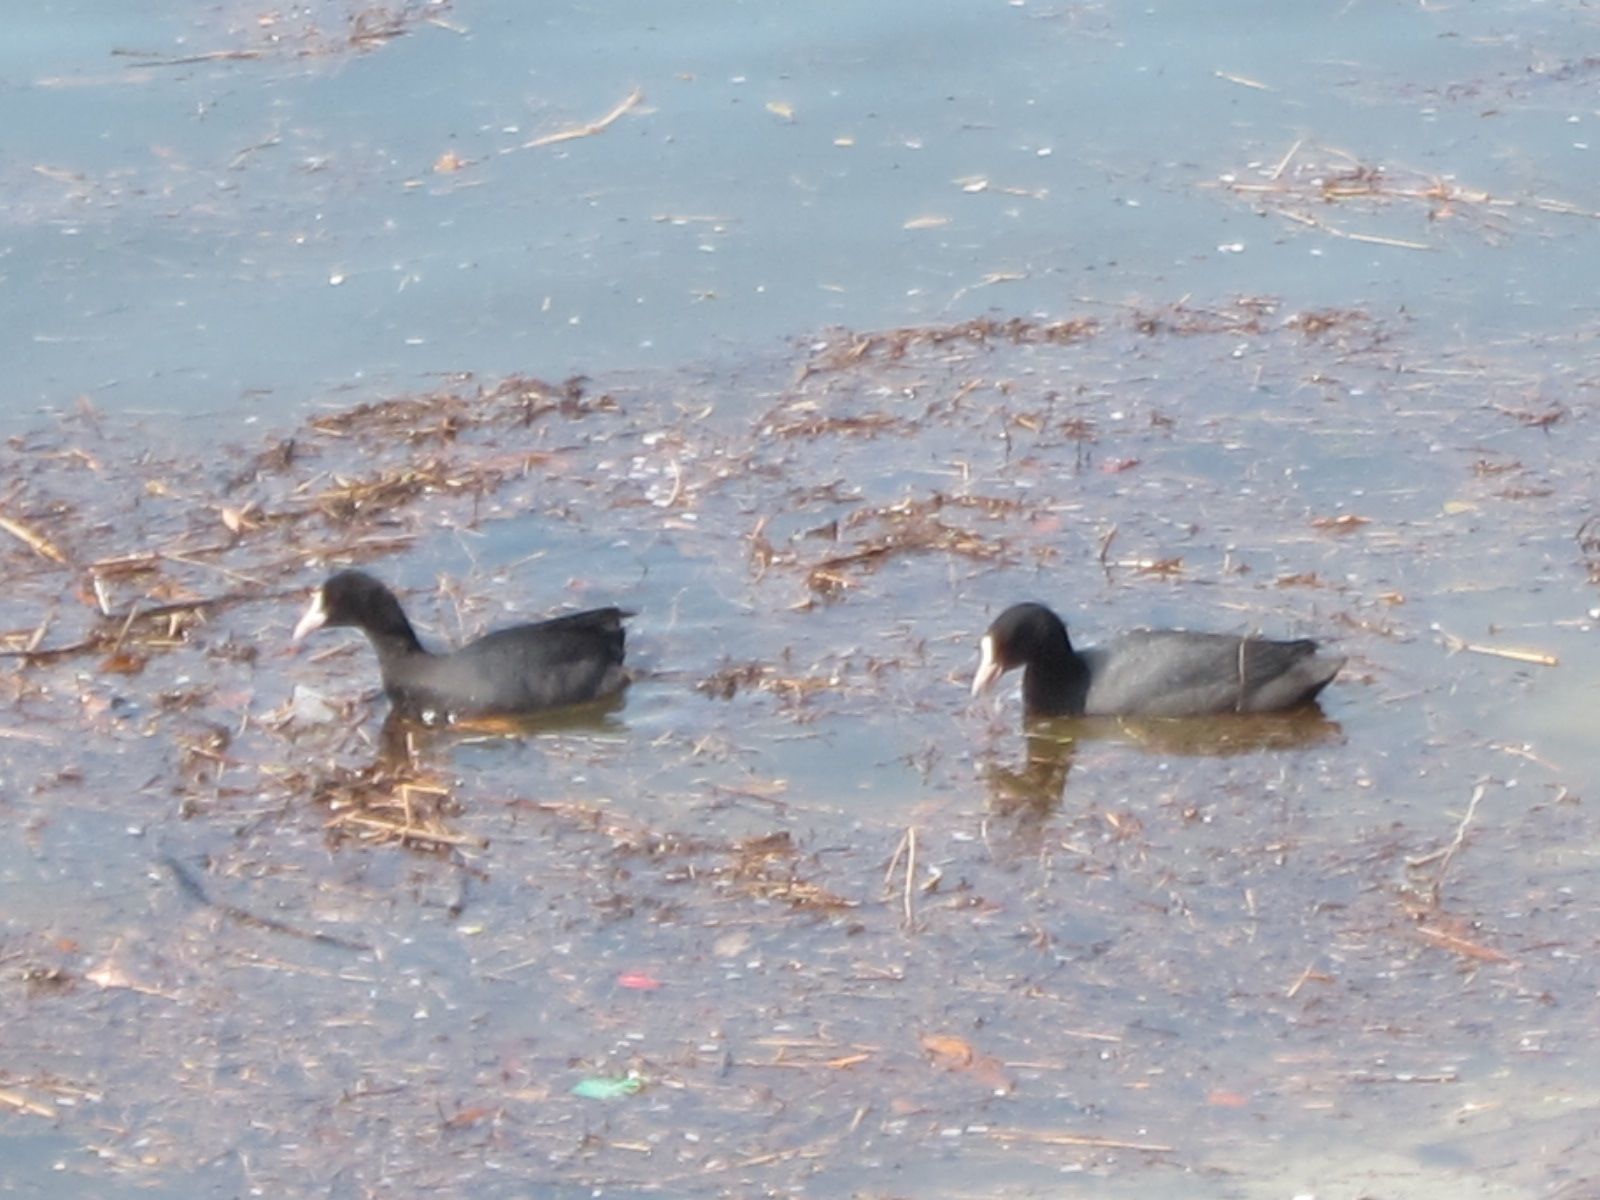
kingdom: Animalia
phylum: Chordata
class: Aves
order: Gruiformes
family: Rallidae
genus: Fulica
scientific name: Fulica atra
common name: Eurasian coot
